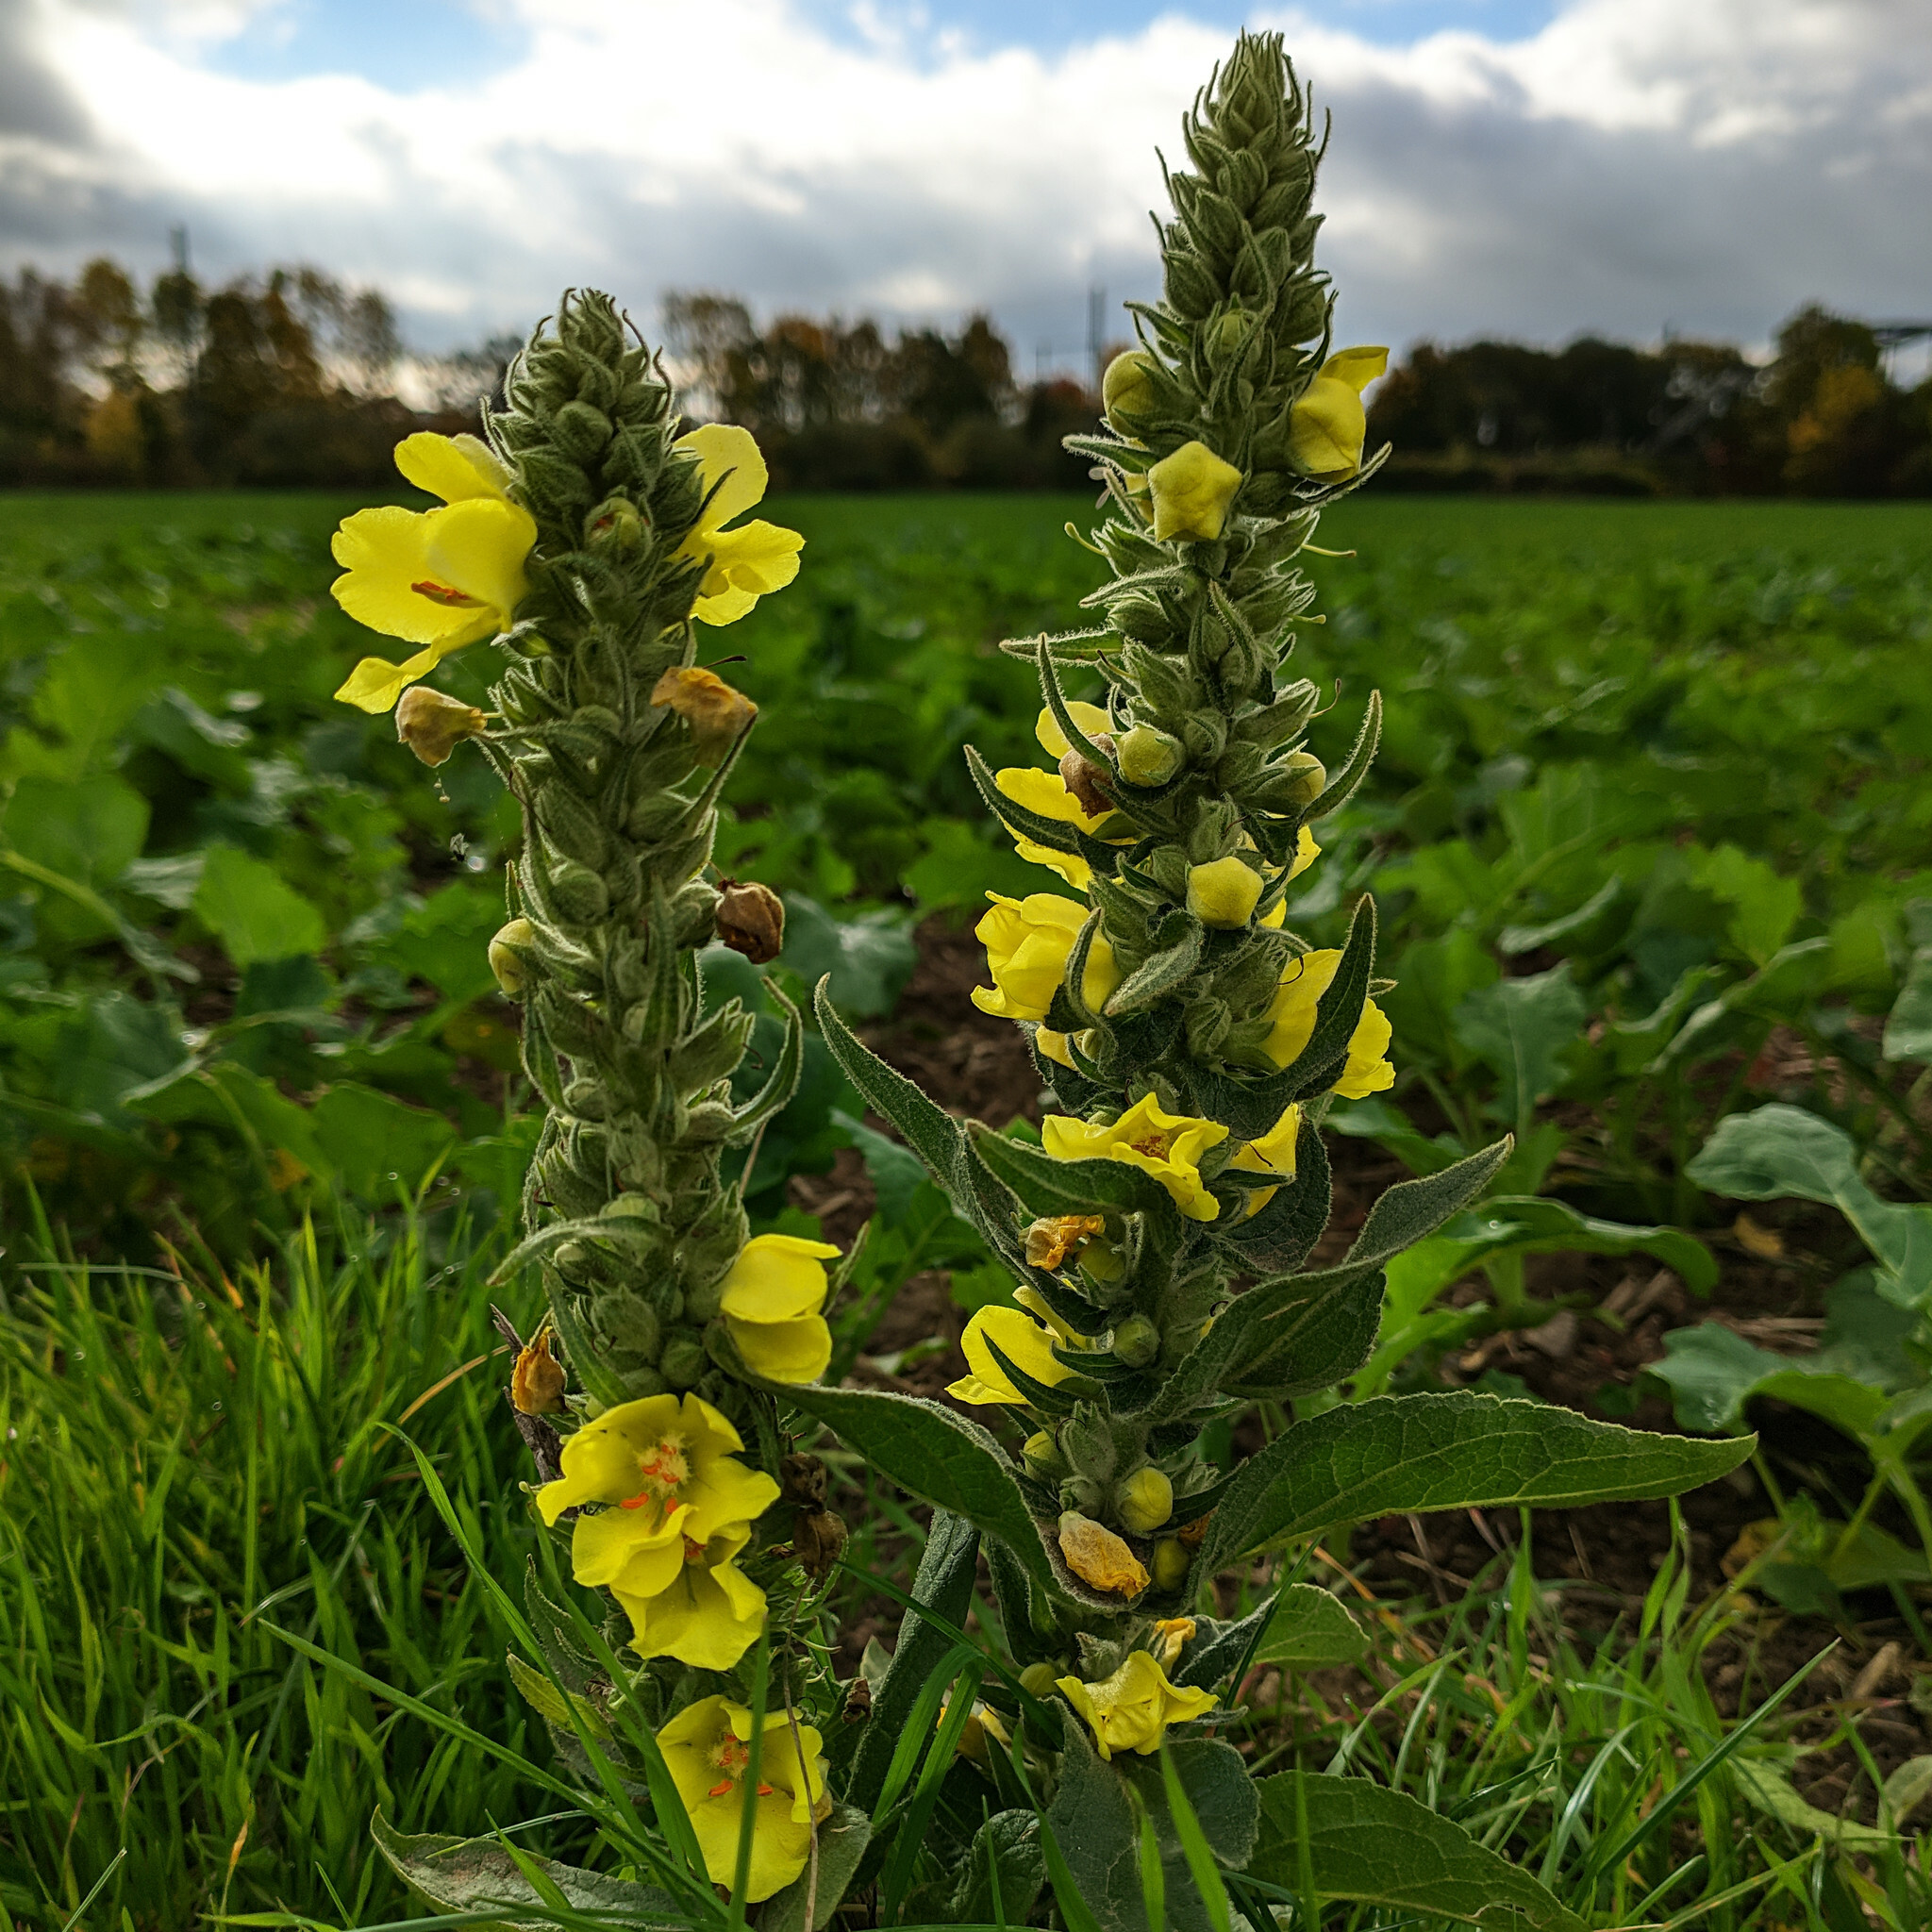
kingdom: Plantae
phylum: Tracheophyta
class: Magnoliopsida
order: Lamiales
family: Scrophulariaceae
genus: Verbascum
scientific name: Verbascum phlomoides
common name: Orange mullein
